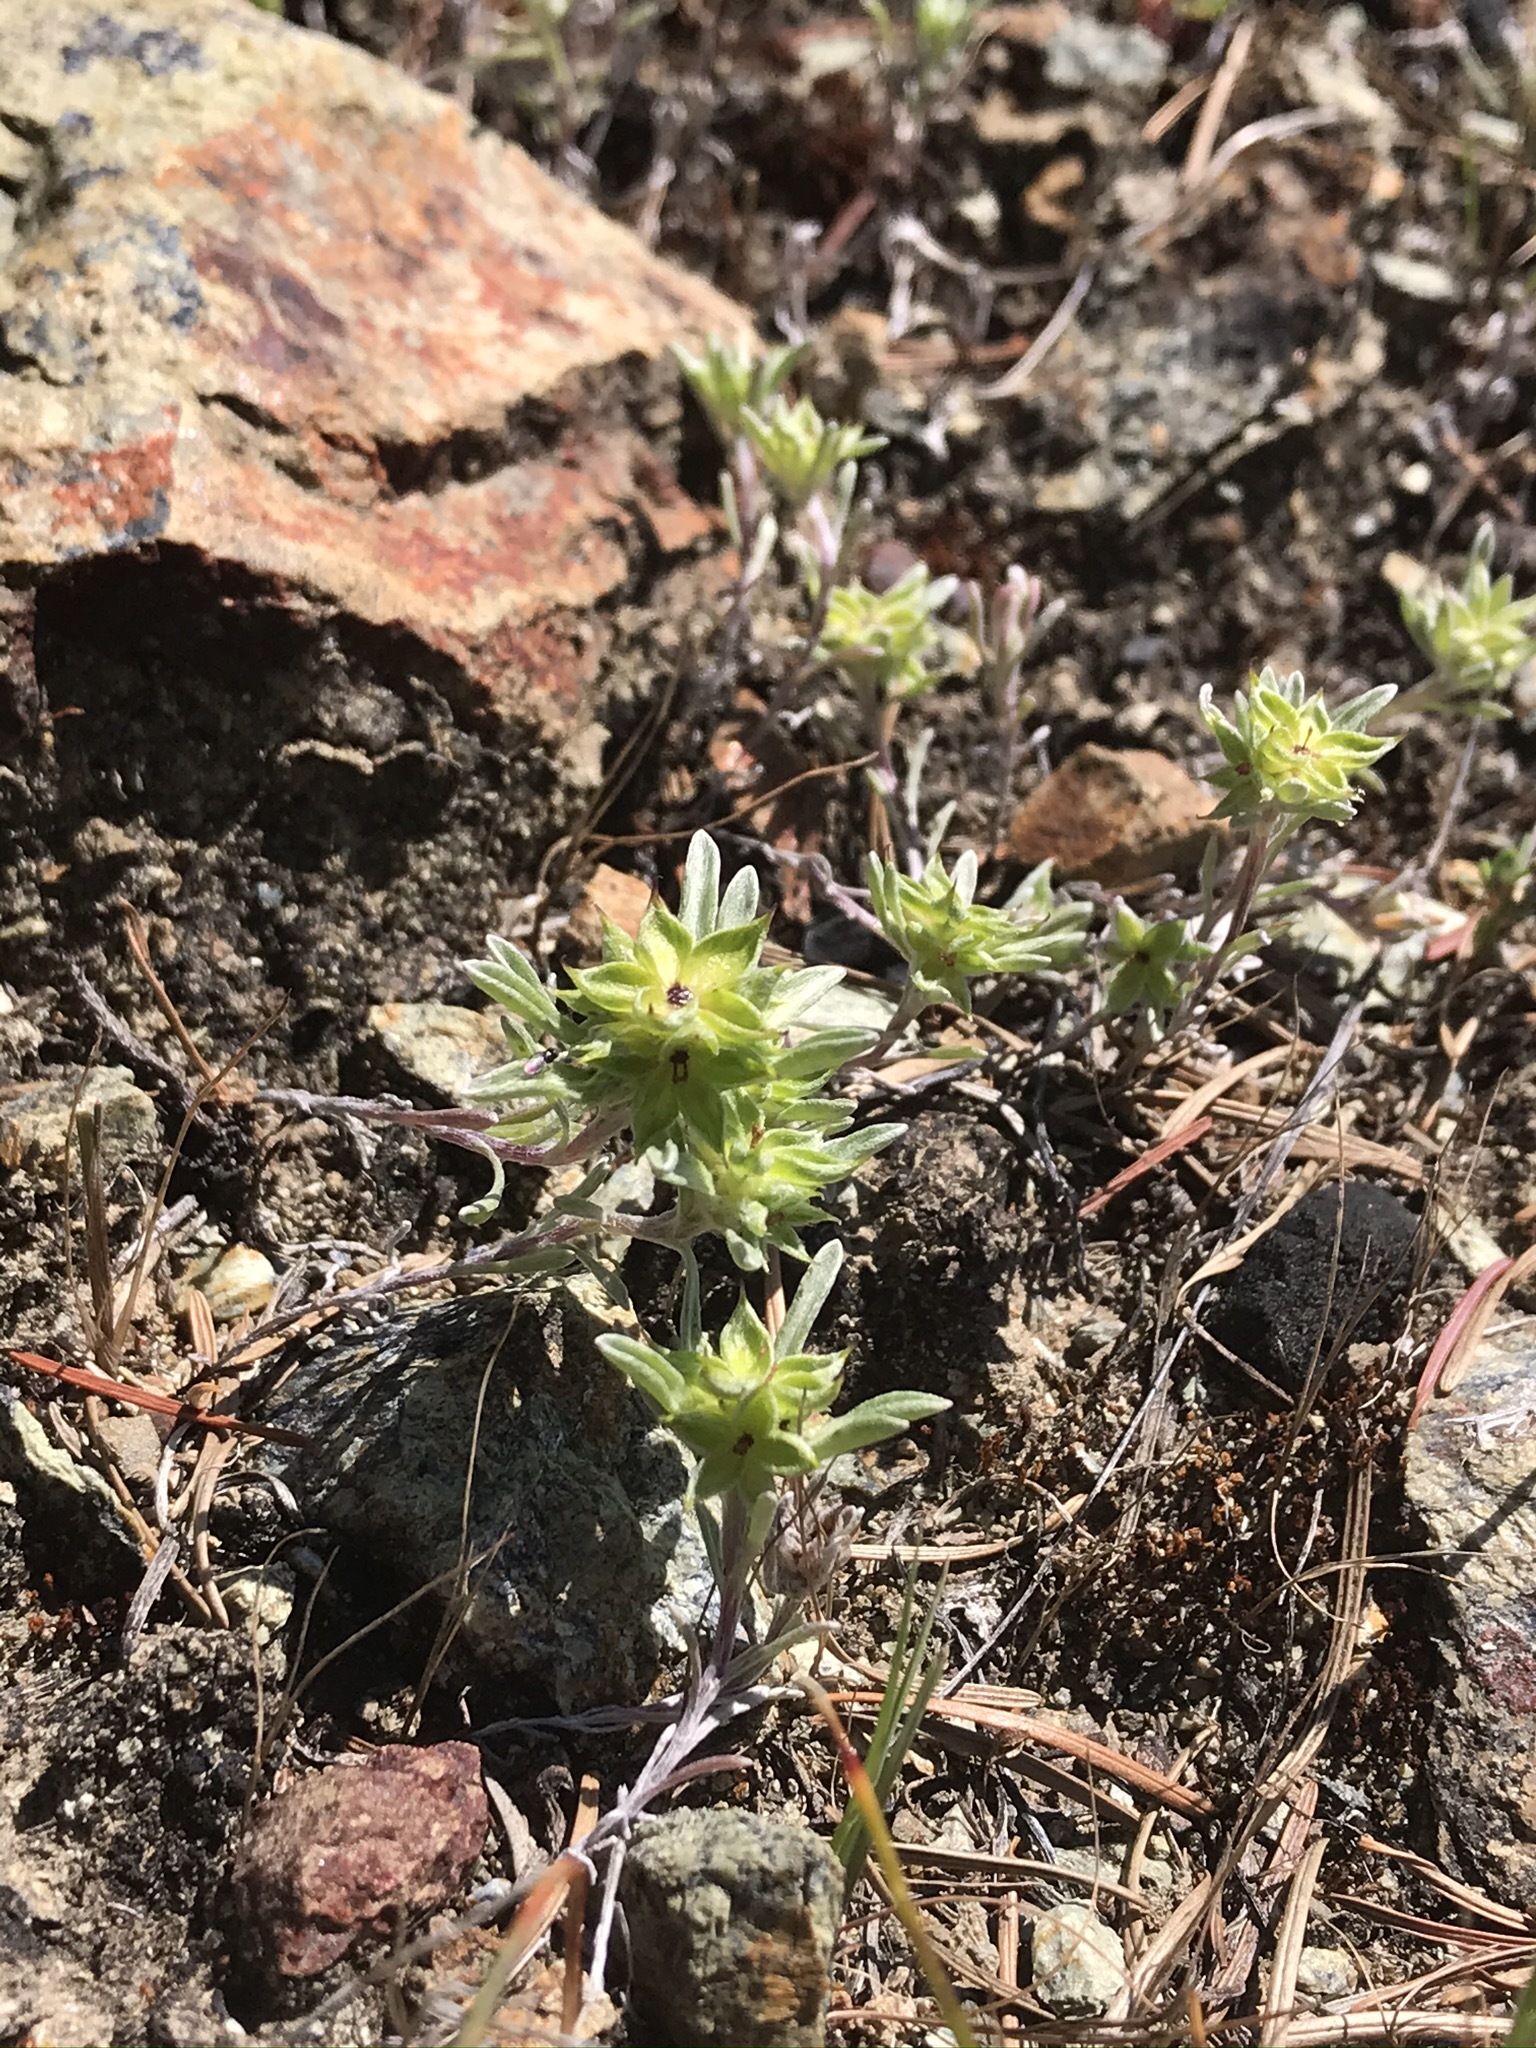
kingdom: Plantae
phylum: Tracheophyta
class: Magnoliopsida
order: Asterales
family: Asteraceae
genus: Ancistrocarphus
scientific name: Ancistrocarphus filagineus
